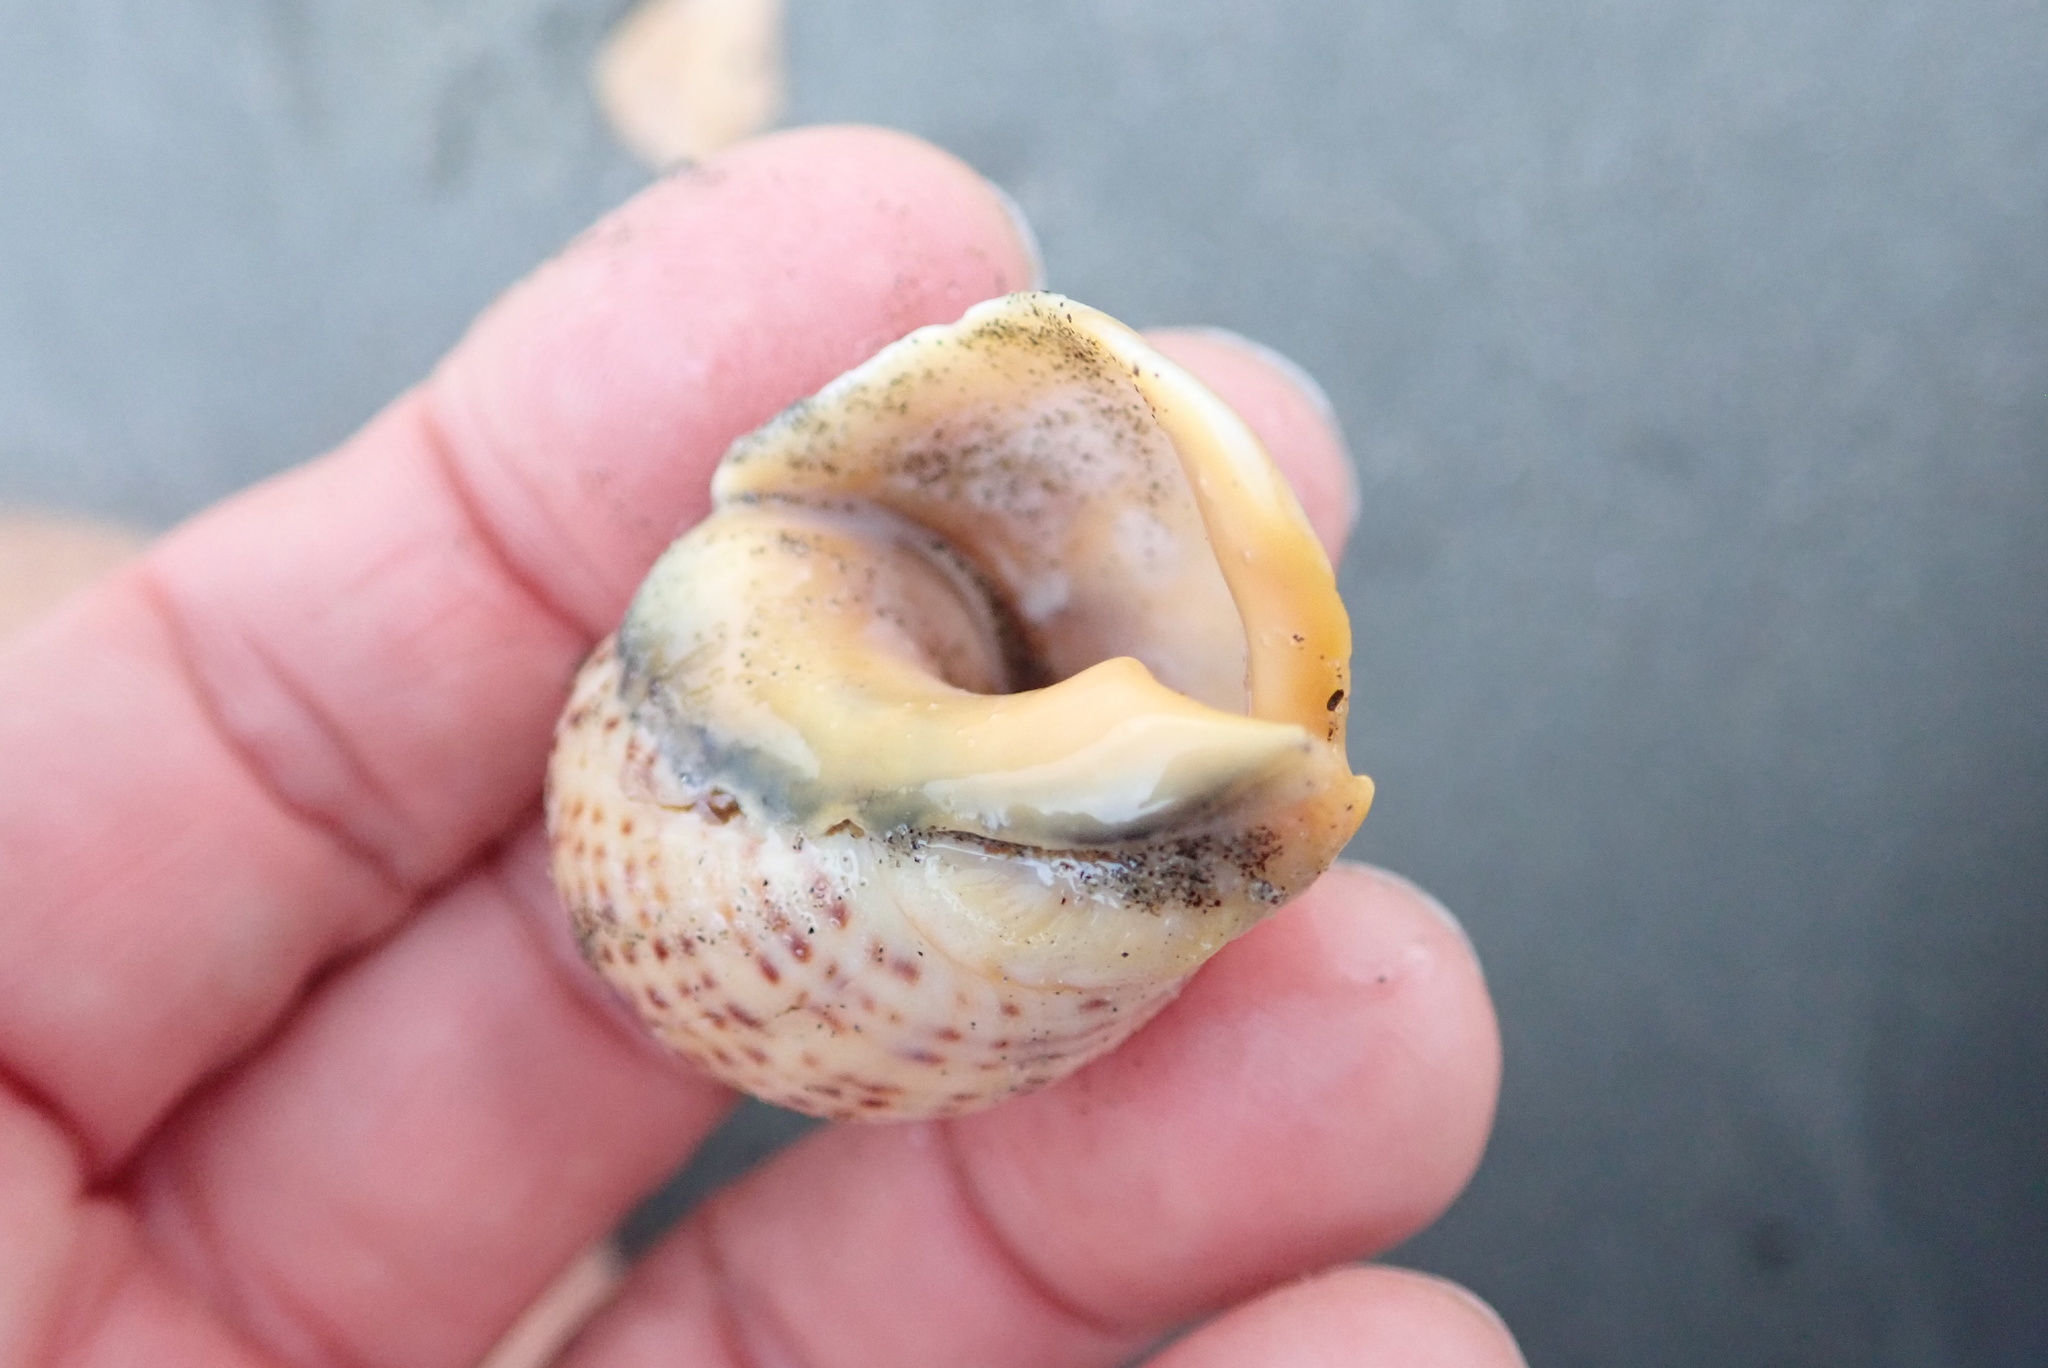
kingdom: Animalia
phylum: Mollusca
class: Gastropoda
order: Neogastropoda
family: Cominellidae
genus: Cominella
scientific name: Cominella adspersa
